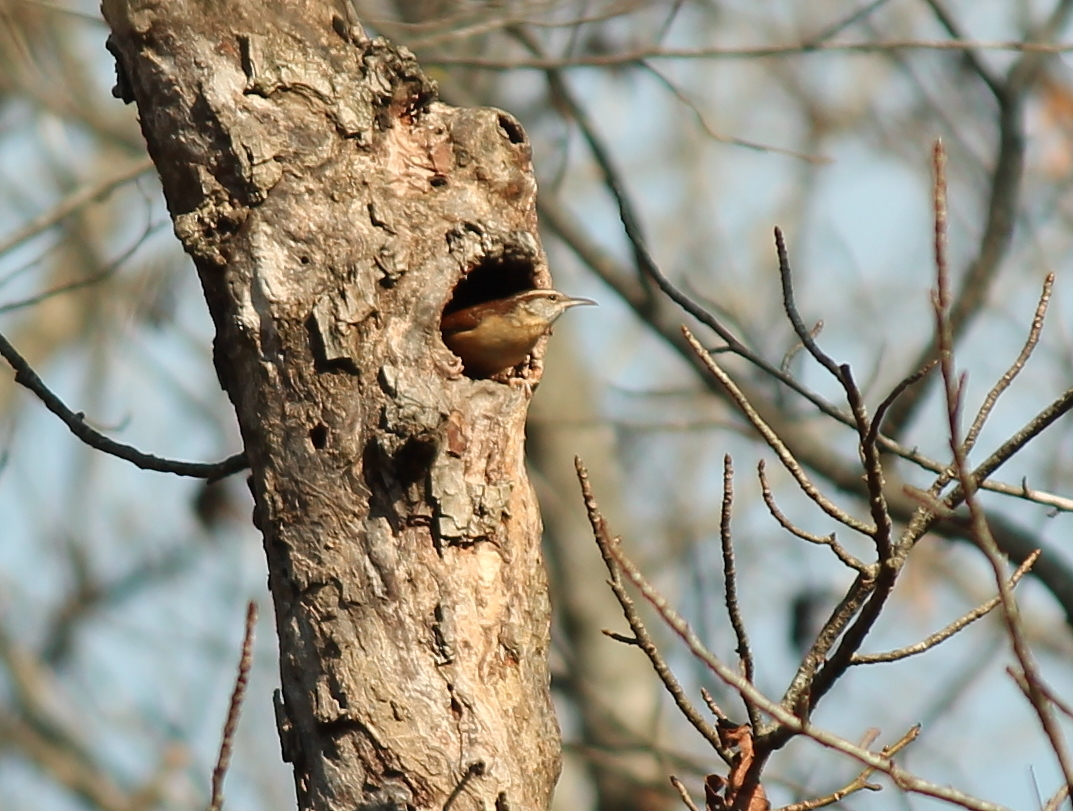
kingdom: Animalia
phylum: Chordata
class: Aves
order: Passeriformes
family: Troglodytidae
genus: Thryothorus
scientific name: Thryothorus ludovicianus
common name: Carolina wren
